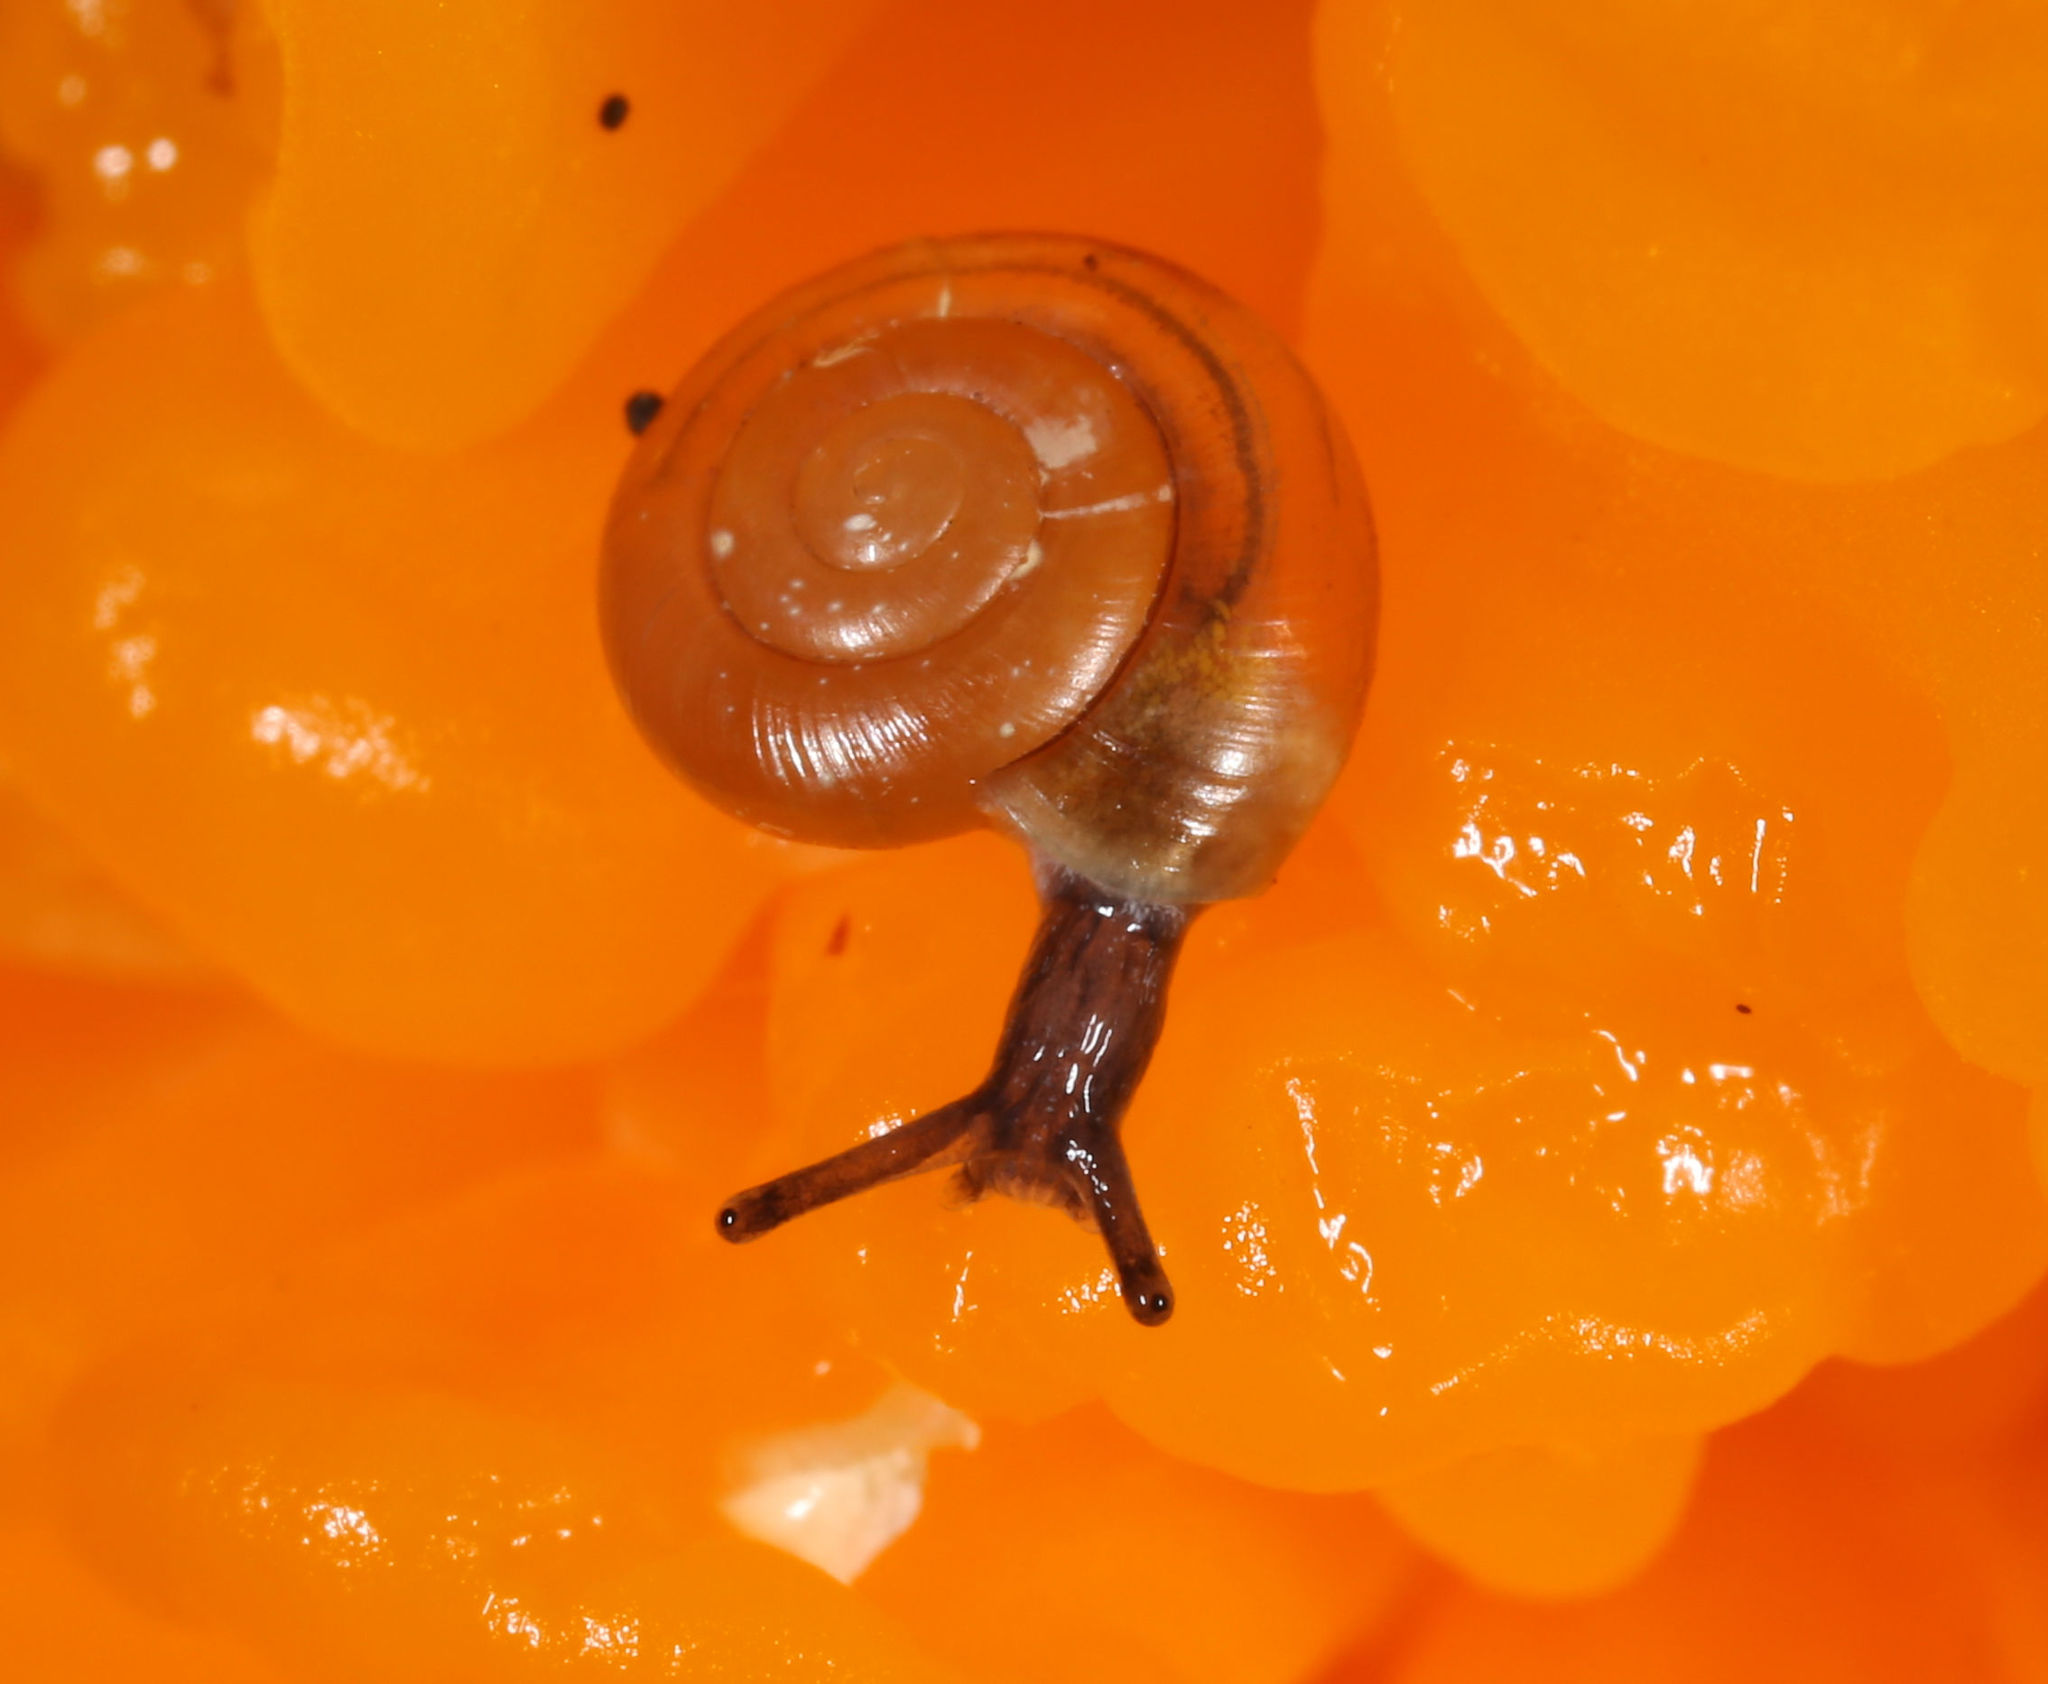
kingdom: Animalia
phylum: Mollusca
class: Gastropoda
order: Stylommatophora
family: Gastrodontidae
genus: Zonitoides
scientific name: Zonitoides arboreus
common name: Quick gloss
